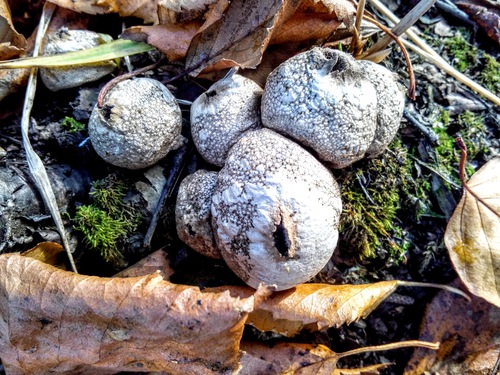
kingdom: Fungi
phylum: Basidiomycota
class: Agaricomycetes
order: Agaricales
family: Lycoperdaceae
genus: Lycoperdon
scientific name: Lycoperdon
